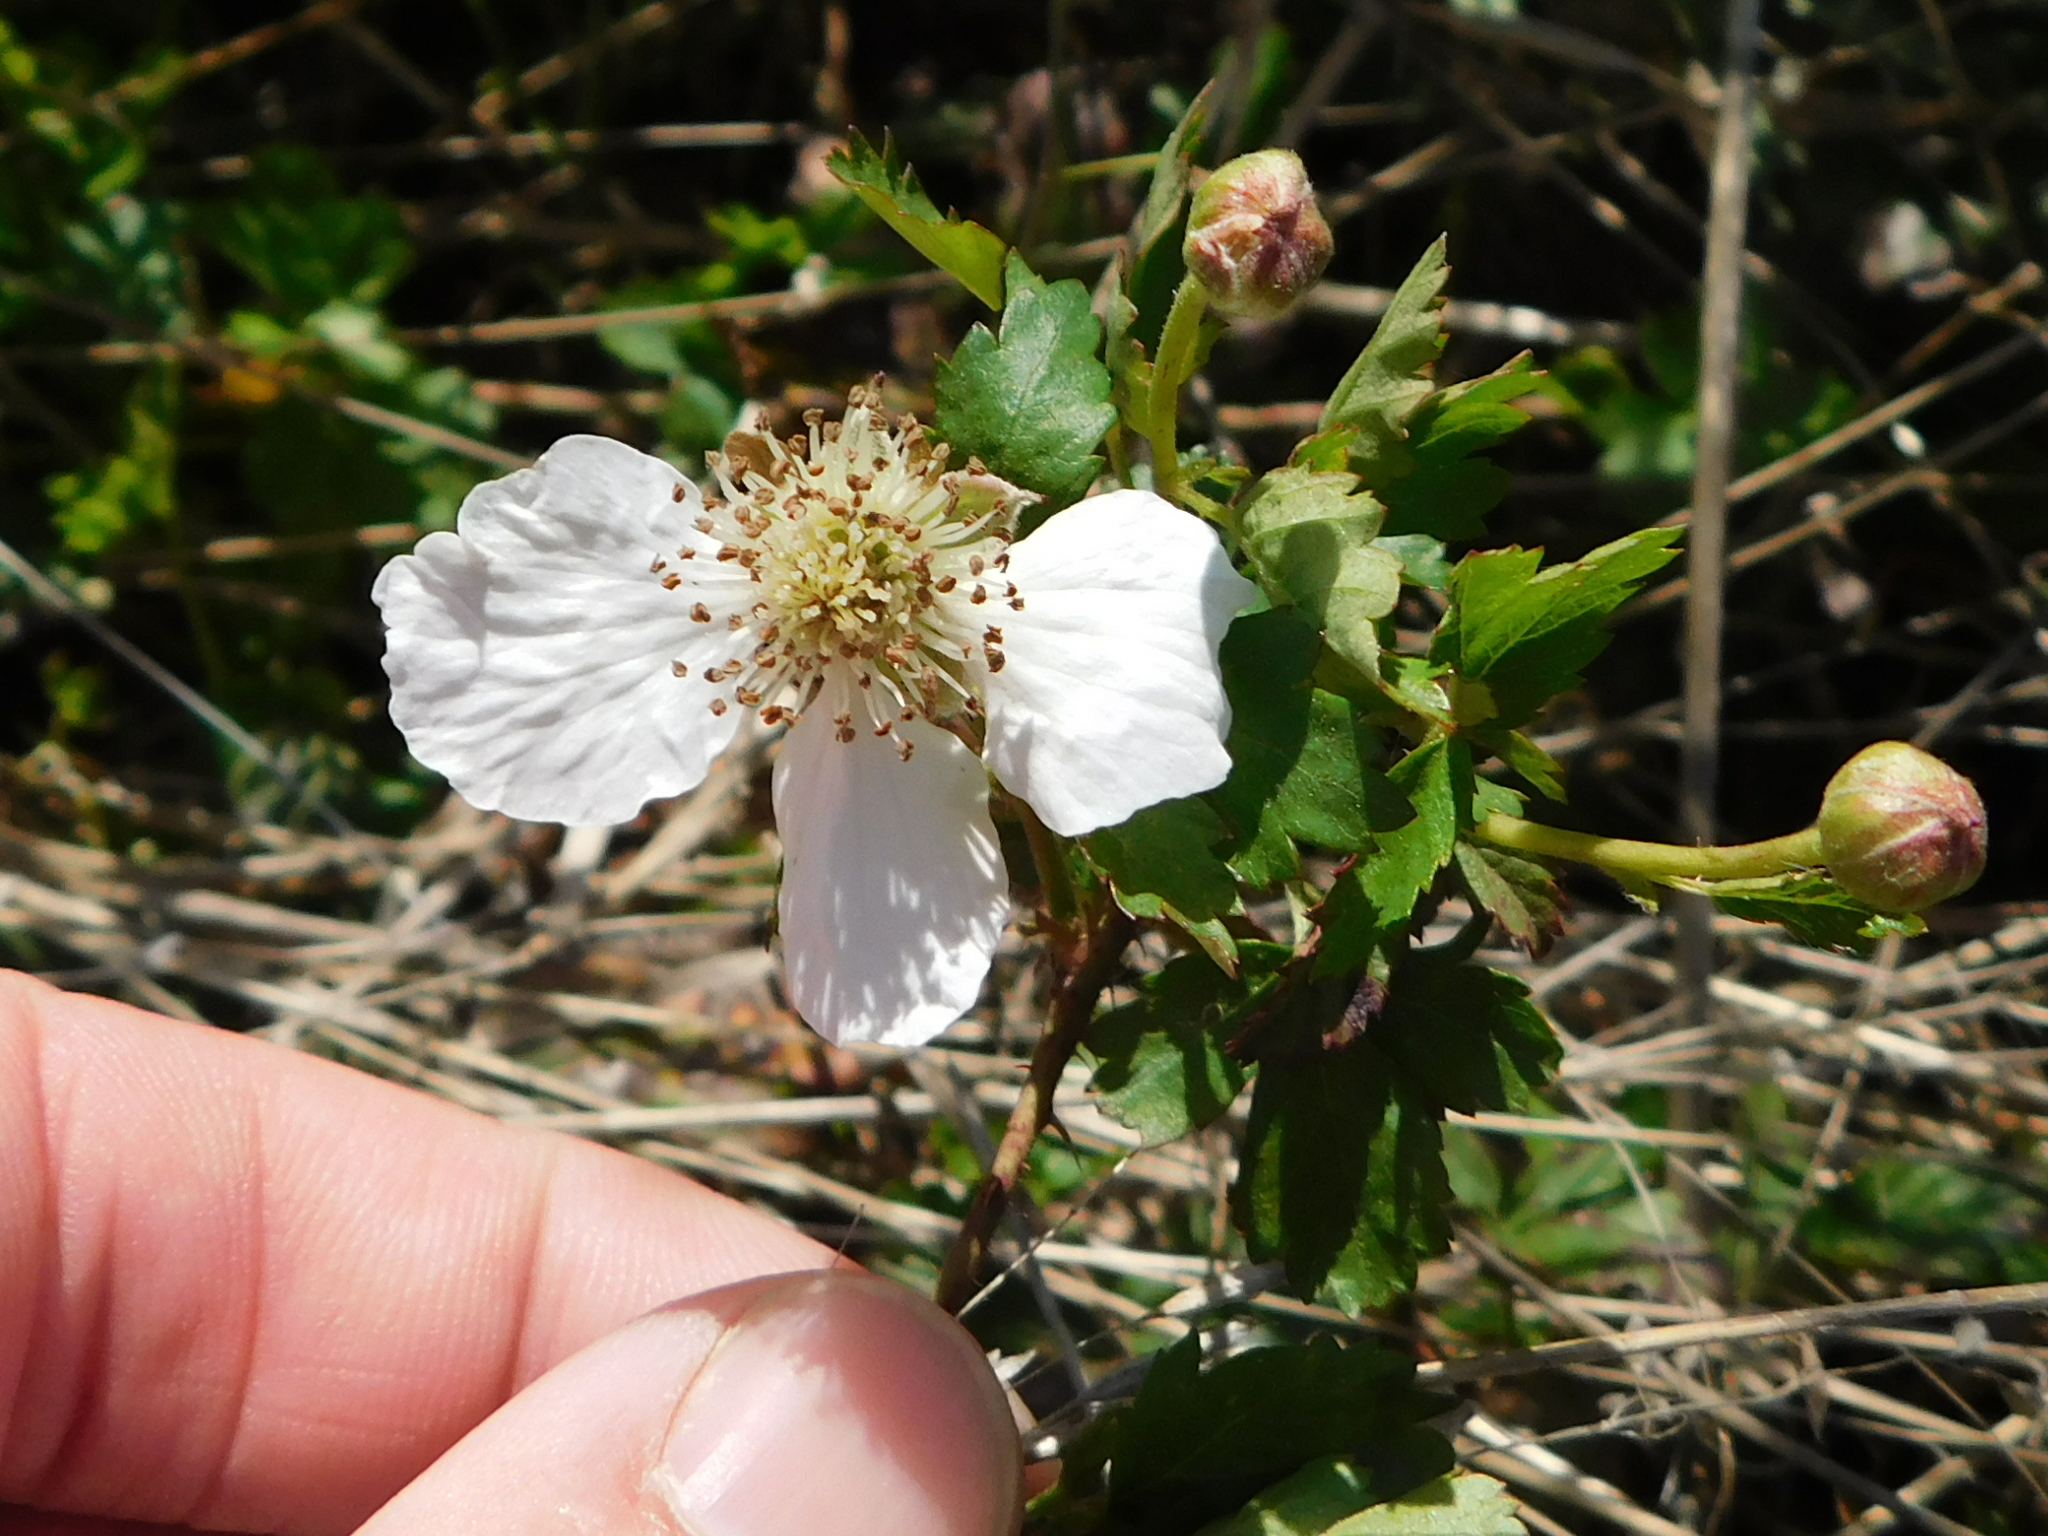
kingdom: Plantae
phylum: Tracheophyta
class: Magnoliopsida
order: Rosales
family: Rosaceae
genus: Rubus
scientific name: Rubus trivialis
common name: Southern dewberry
